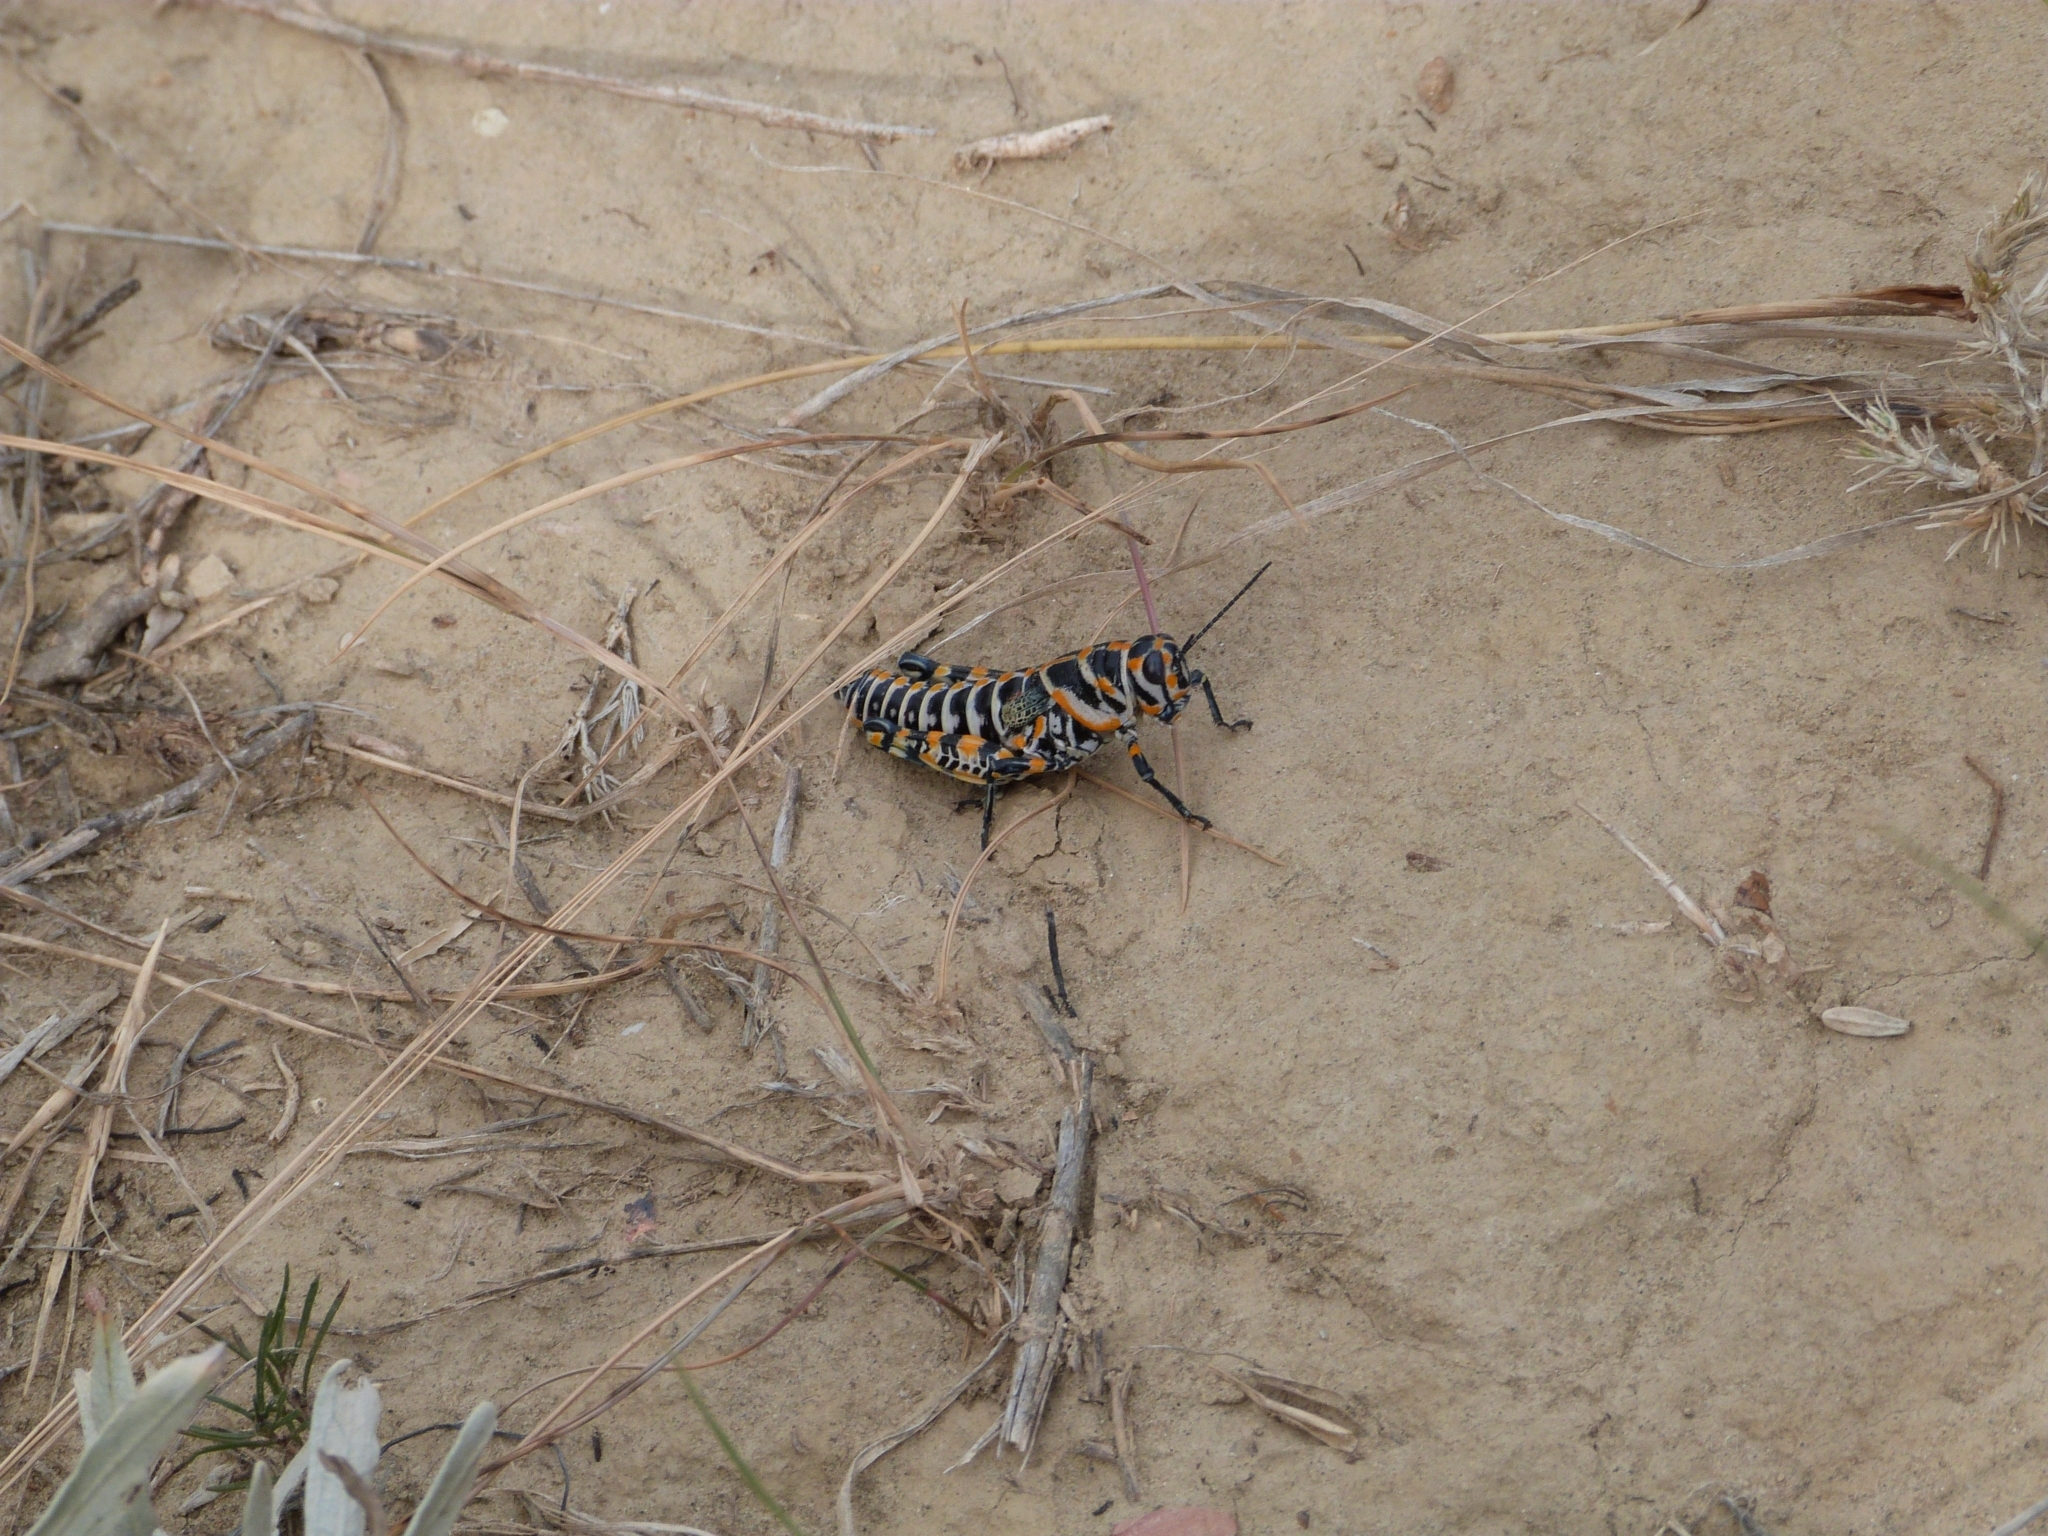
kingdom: Animalia
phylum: Arthropoda
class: Insecta
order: Orthoptera
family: Acrididae
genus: Dactylotum
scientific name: Dactylotum bicolor
